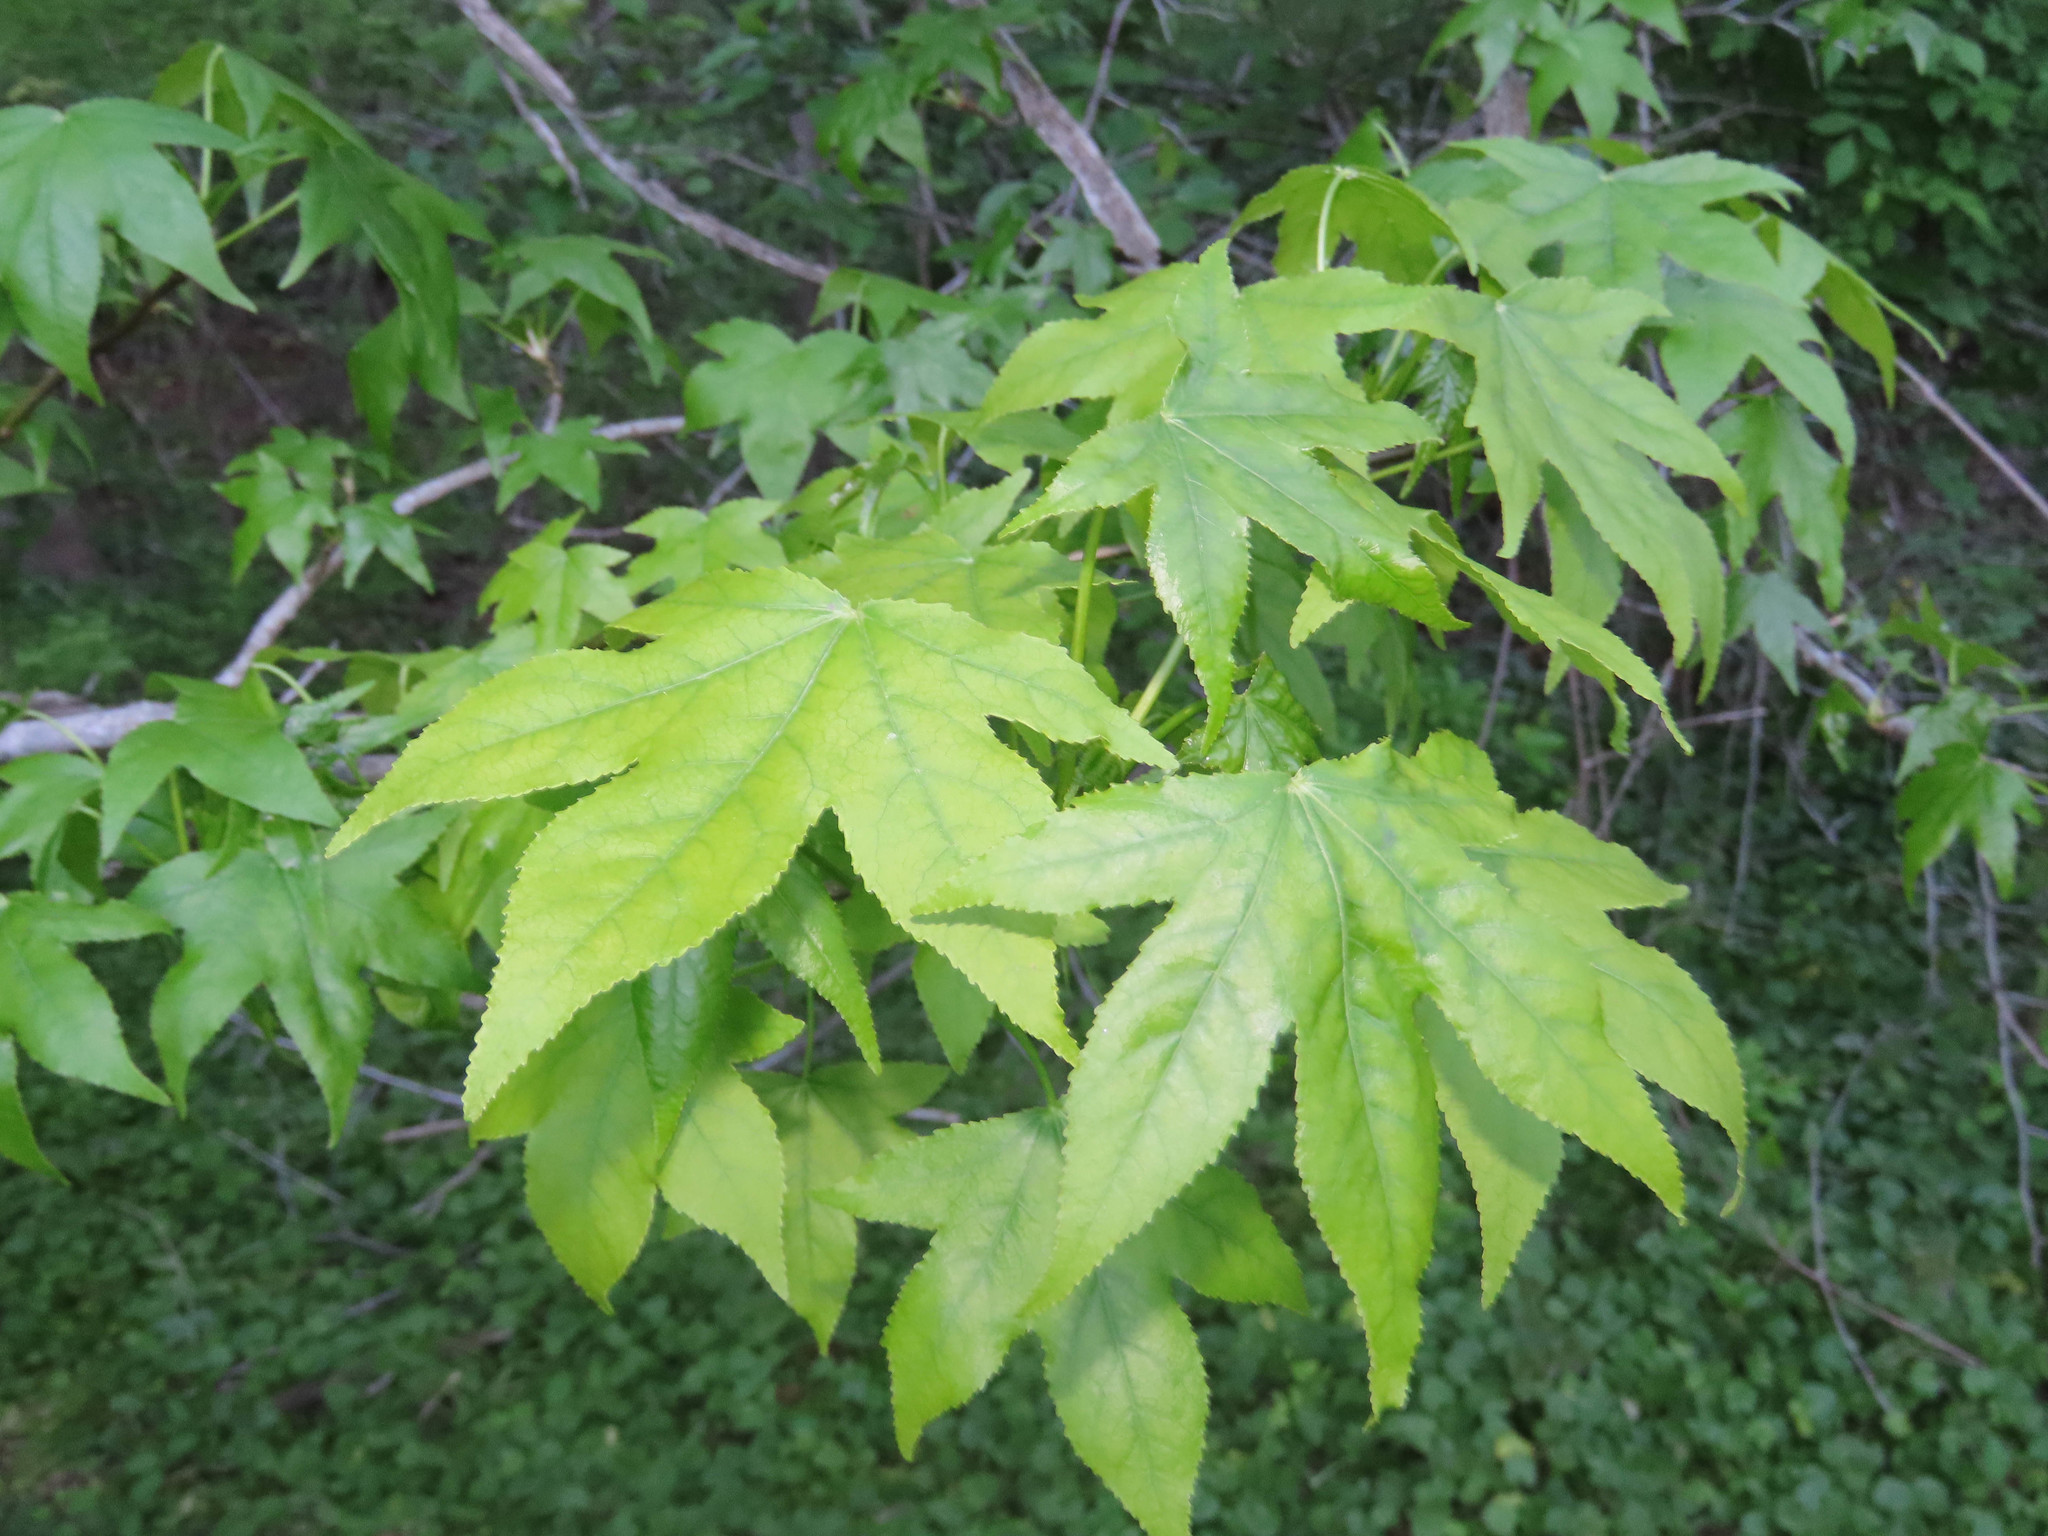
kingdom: Plantae
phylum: Tracheophyta
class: Magnoliopsida
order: Saxifragales
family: Altingiaceae
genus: Liquidambar
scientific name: Liquidambar styraciflua
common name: Sweet gum
